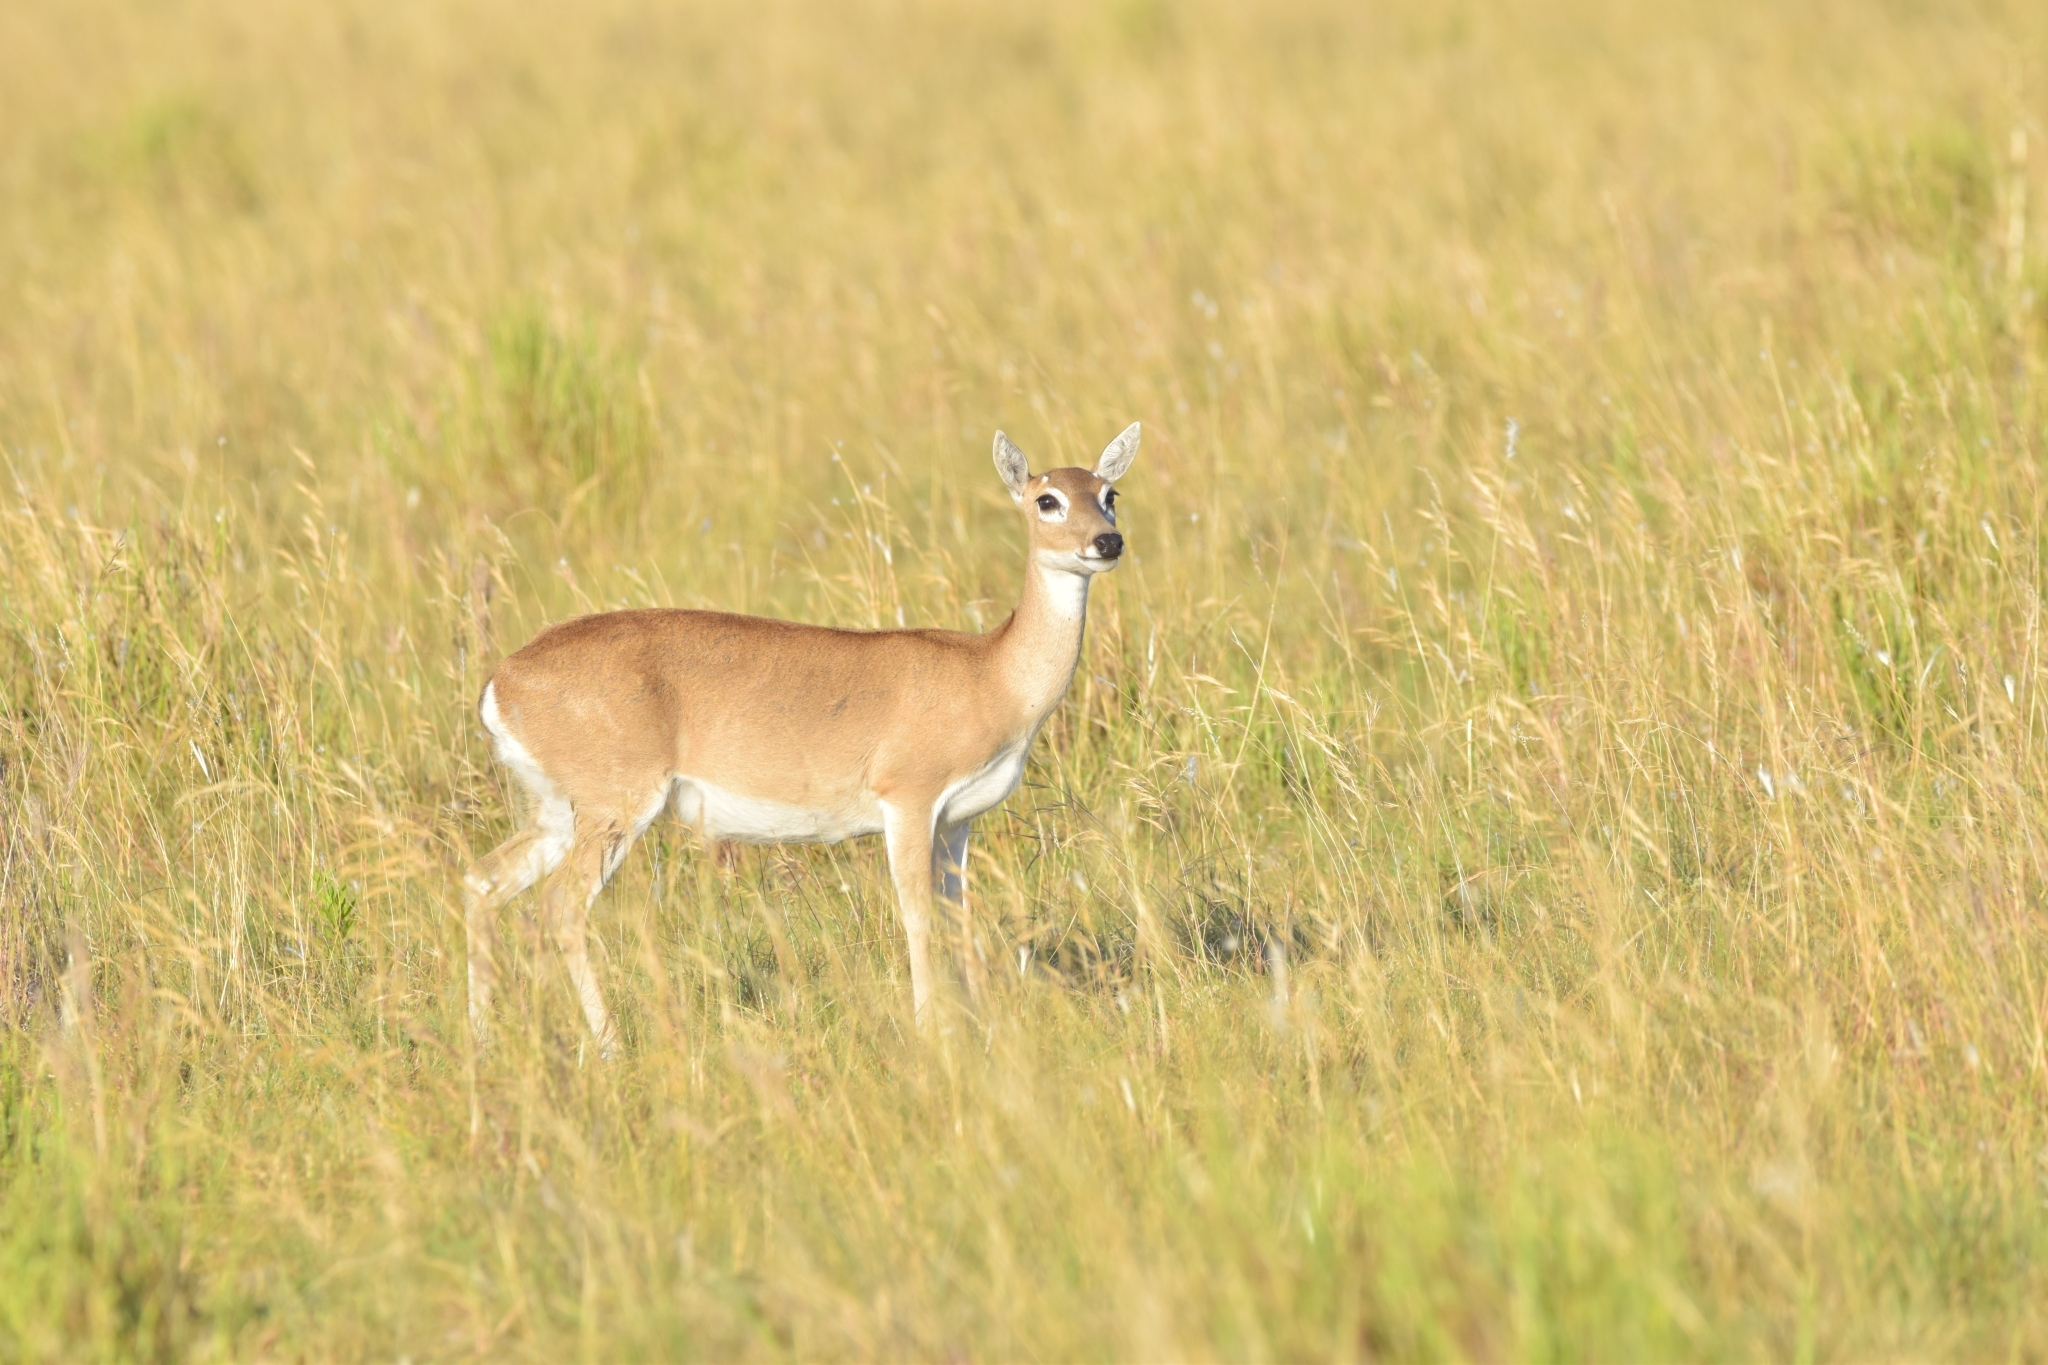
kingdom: Animalia
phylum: Chordata
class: Mammalia
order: Artiodactyla
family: Cervidae
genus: Ozotoceros
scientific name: Ozotoceros bezoarticus
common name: Pampas deer
